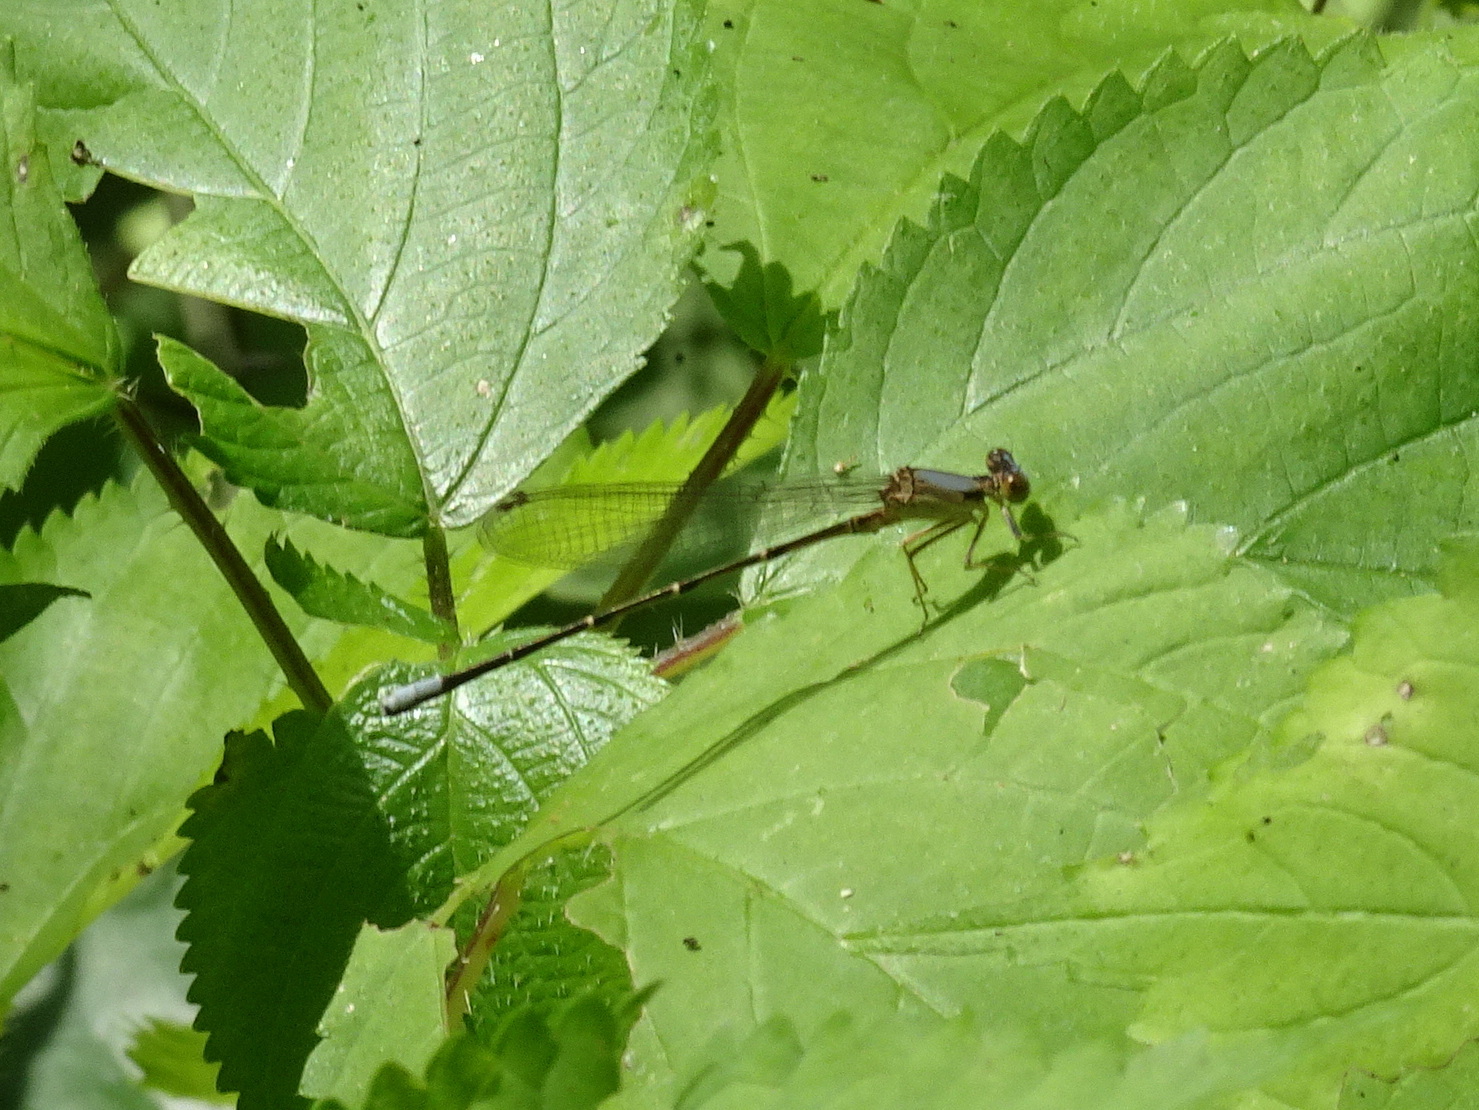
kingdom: Animalia
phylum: Arthropoda
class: Insecta
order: Odonata
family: Coenagrionidae
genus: Argia
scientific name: Argia apicalis
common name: Blue-fronted dancer
